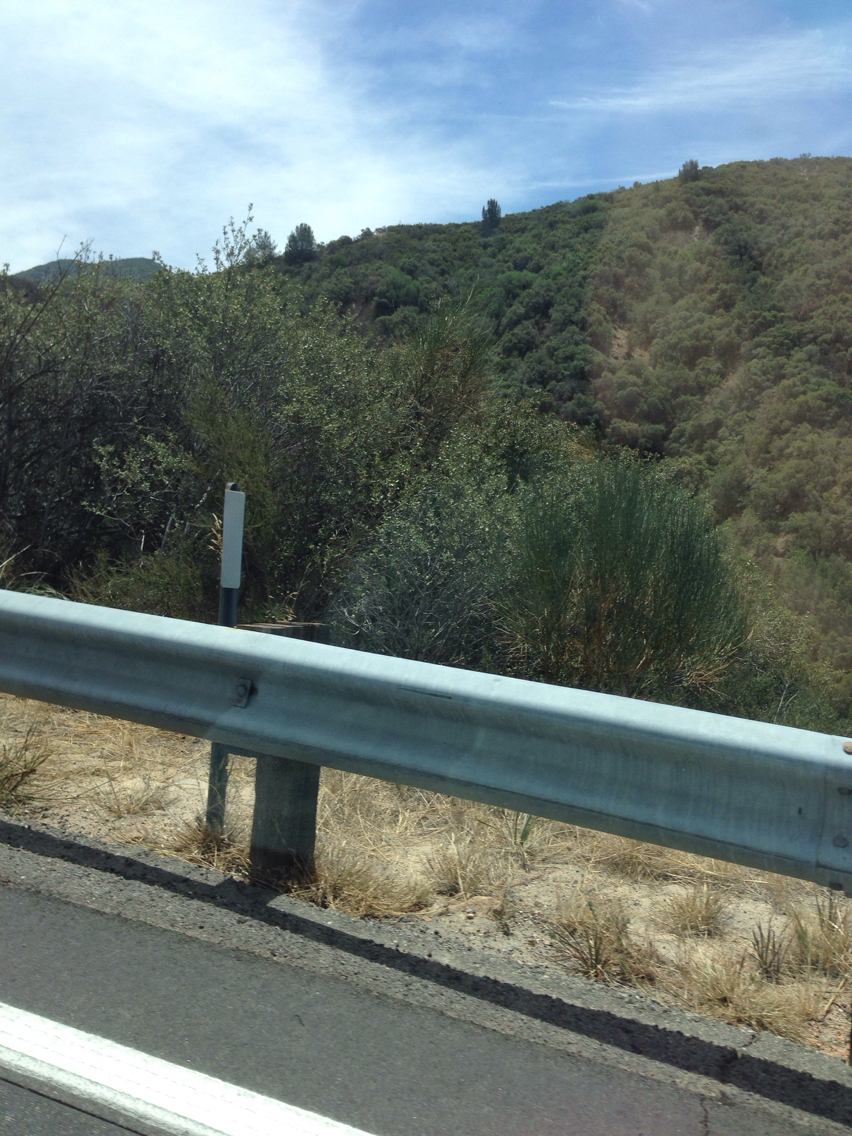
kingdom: Plantae
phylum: Tracheophyta
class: Magnoliopsida
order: Fabales
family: Fabaceae
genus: Spartium
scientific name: Spartium junceum
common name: Spanish broom
